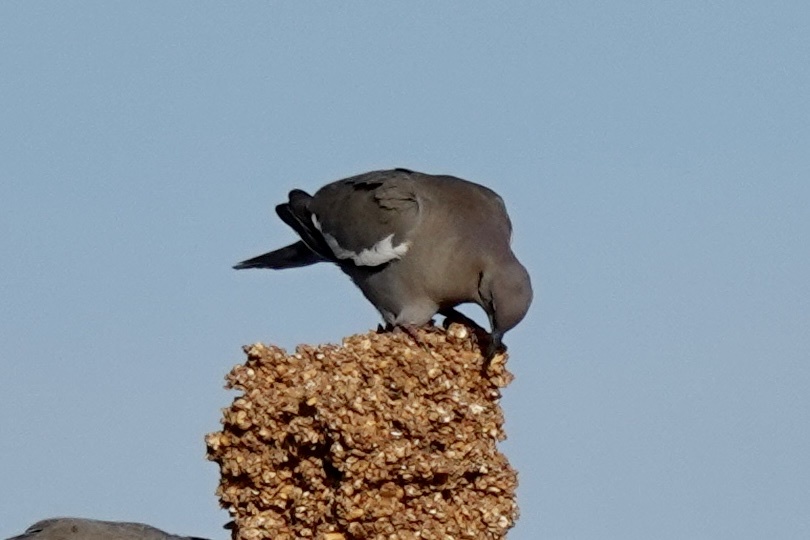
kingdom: Animalia
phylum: Chordata
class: Aves
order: Columbiformes
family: Columbidae
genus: Zenaida
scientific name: Zenaida asiatica
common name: White-winged dove
